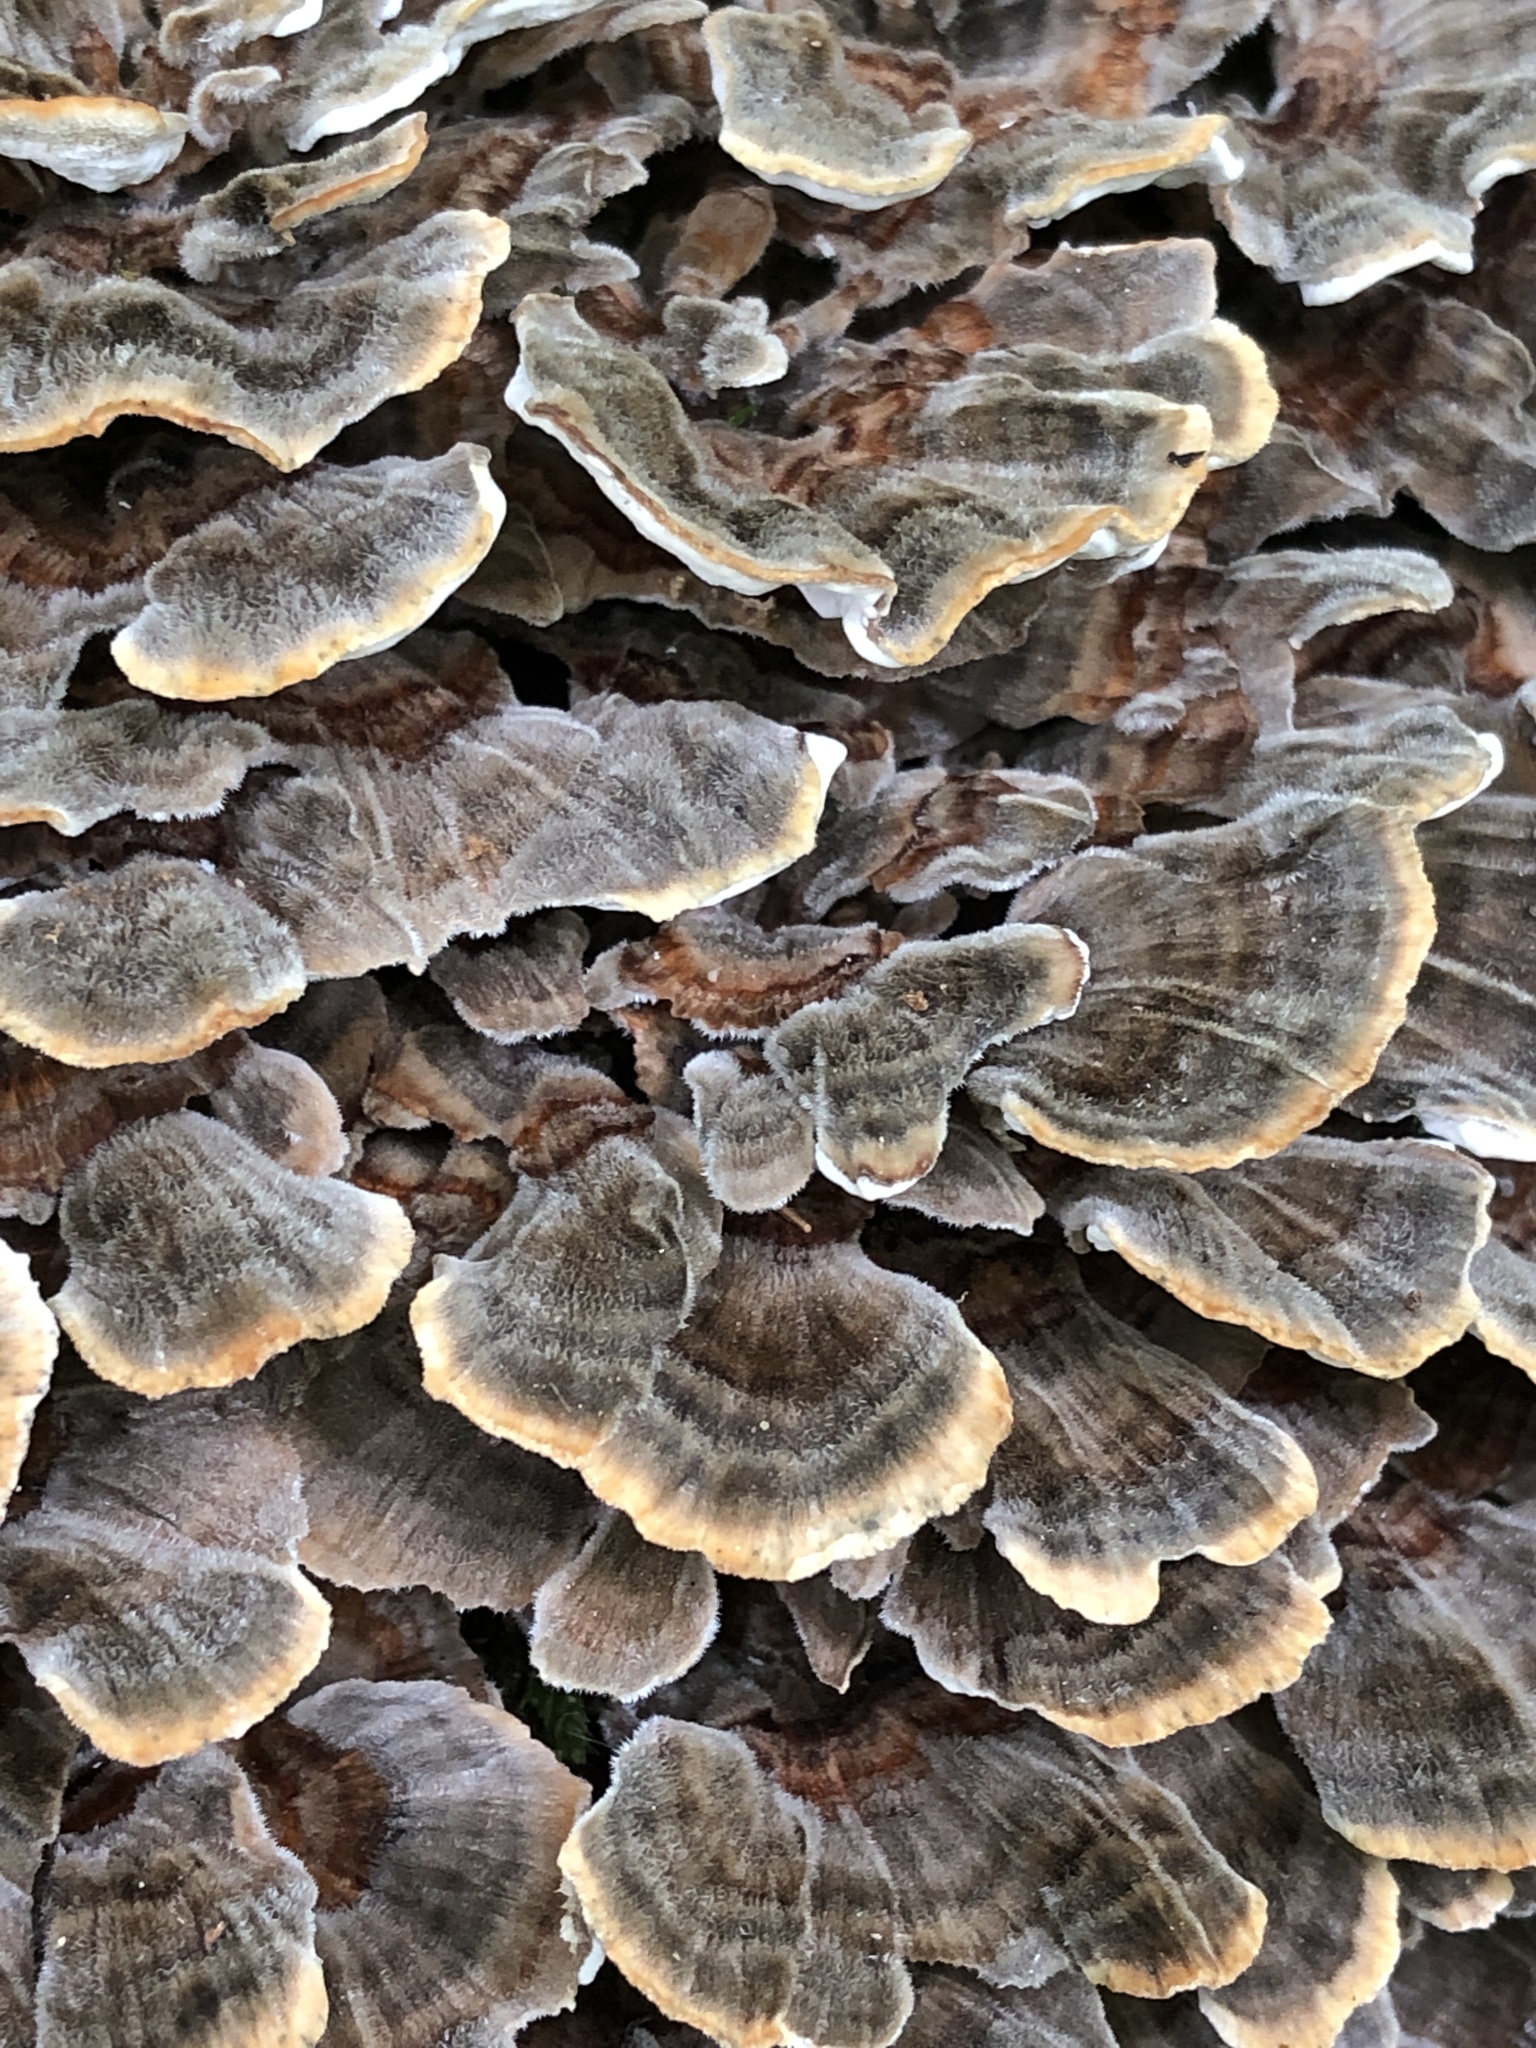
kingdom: Fungi
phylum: Basidiomycota
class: Agaricomycetes
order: Polyporales
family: Polyporaceae
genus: Trametes
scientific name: Trametes versicolor
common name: Turkeytail
